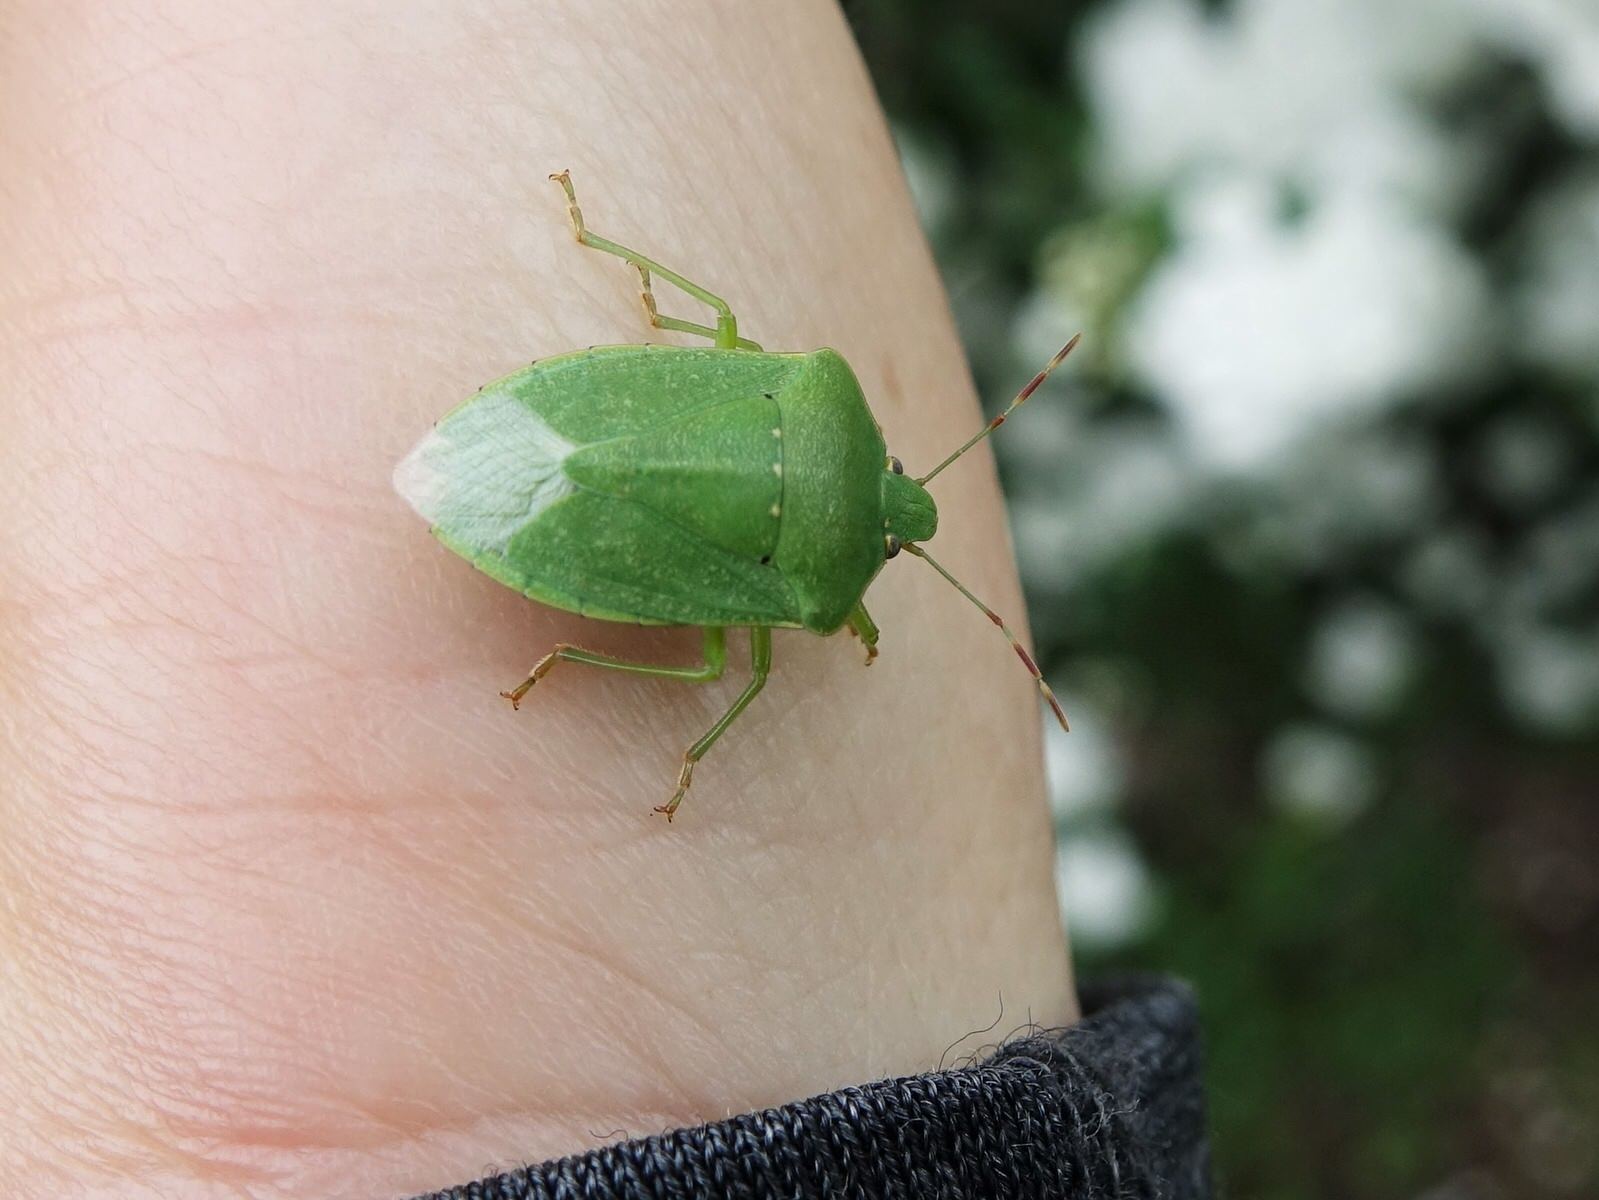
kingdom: Animalia
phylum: Arthropoda
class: Insecta
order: Hemiptera
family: Pentatomidae
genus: Nezara
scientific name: Nezara viridula
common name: Southern green stink bug
